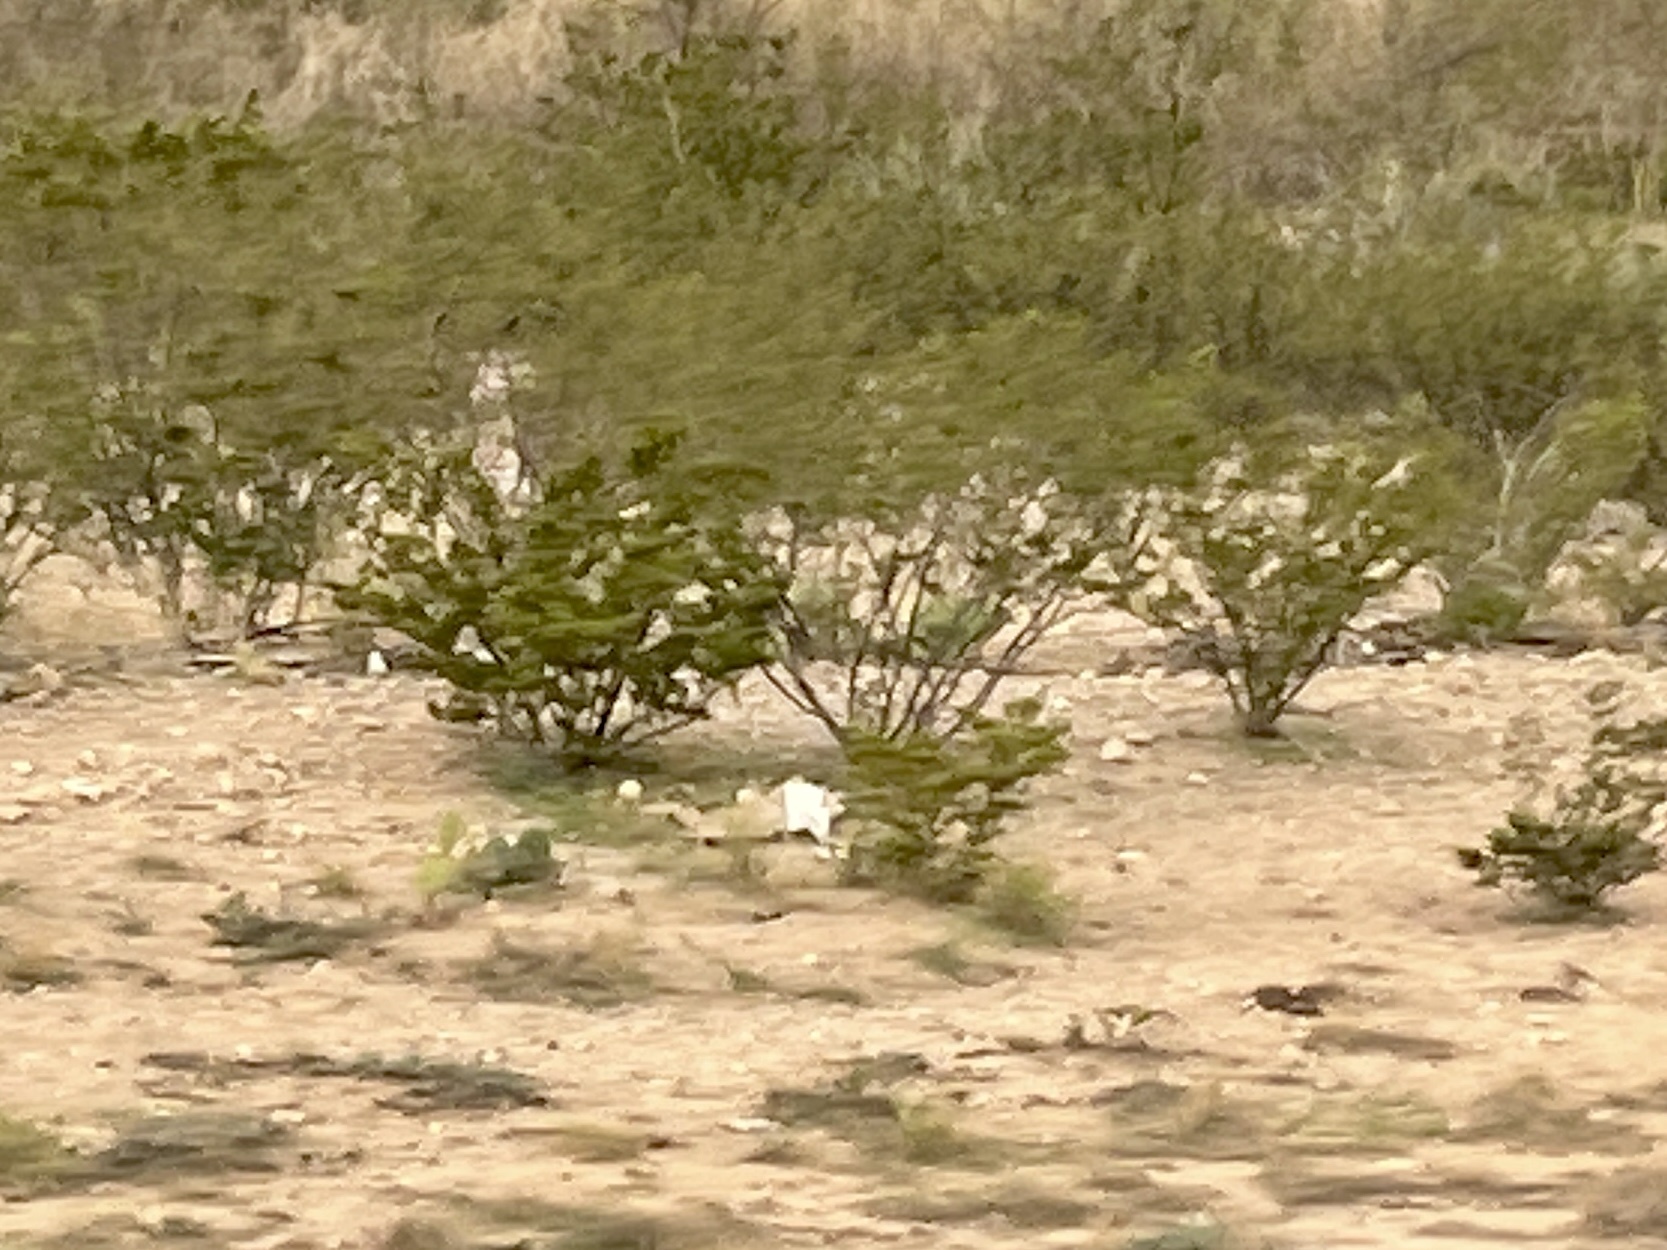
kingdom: Plantae
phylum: Tracheophyta
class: Magnoliopsida
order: Zygophyllales
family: Zygophyllaceae
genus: Larrea
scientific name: Larrea tridentata
